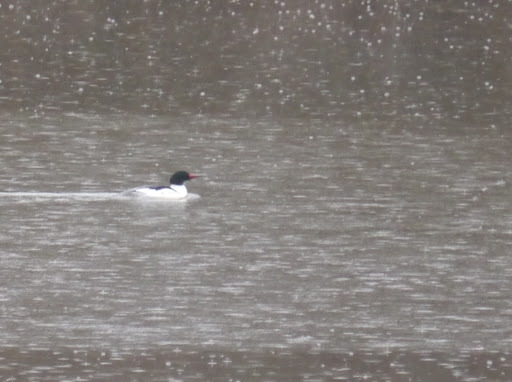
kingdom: Animalia
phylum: Chordata
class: Aves
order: Anseriformes
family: Anatidae
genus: Mergus
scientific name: Mergus merganser
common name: Common merganser
